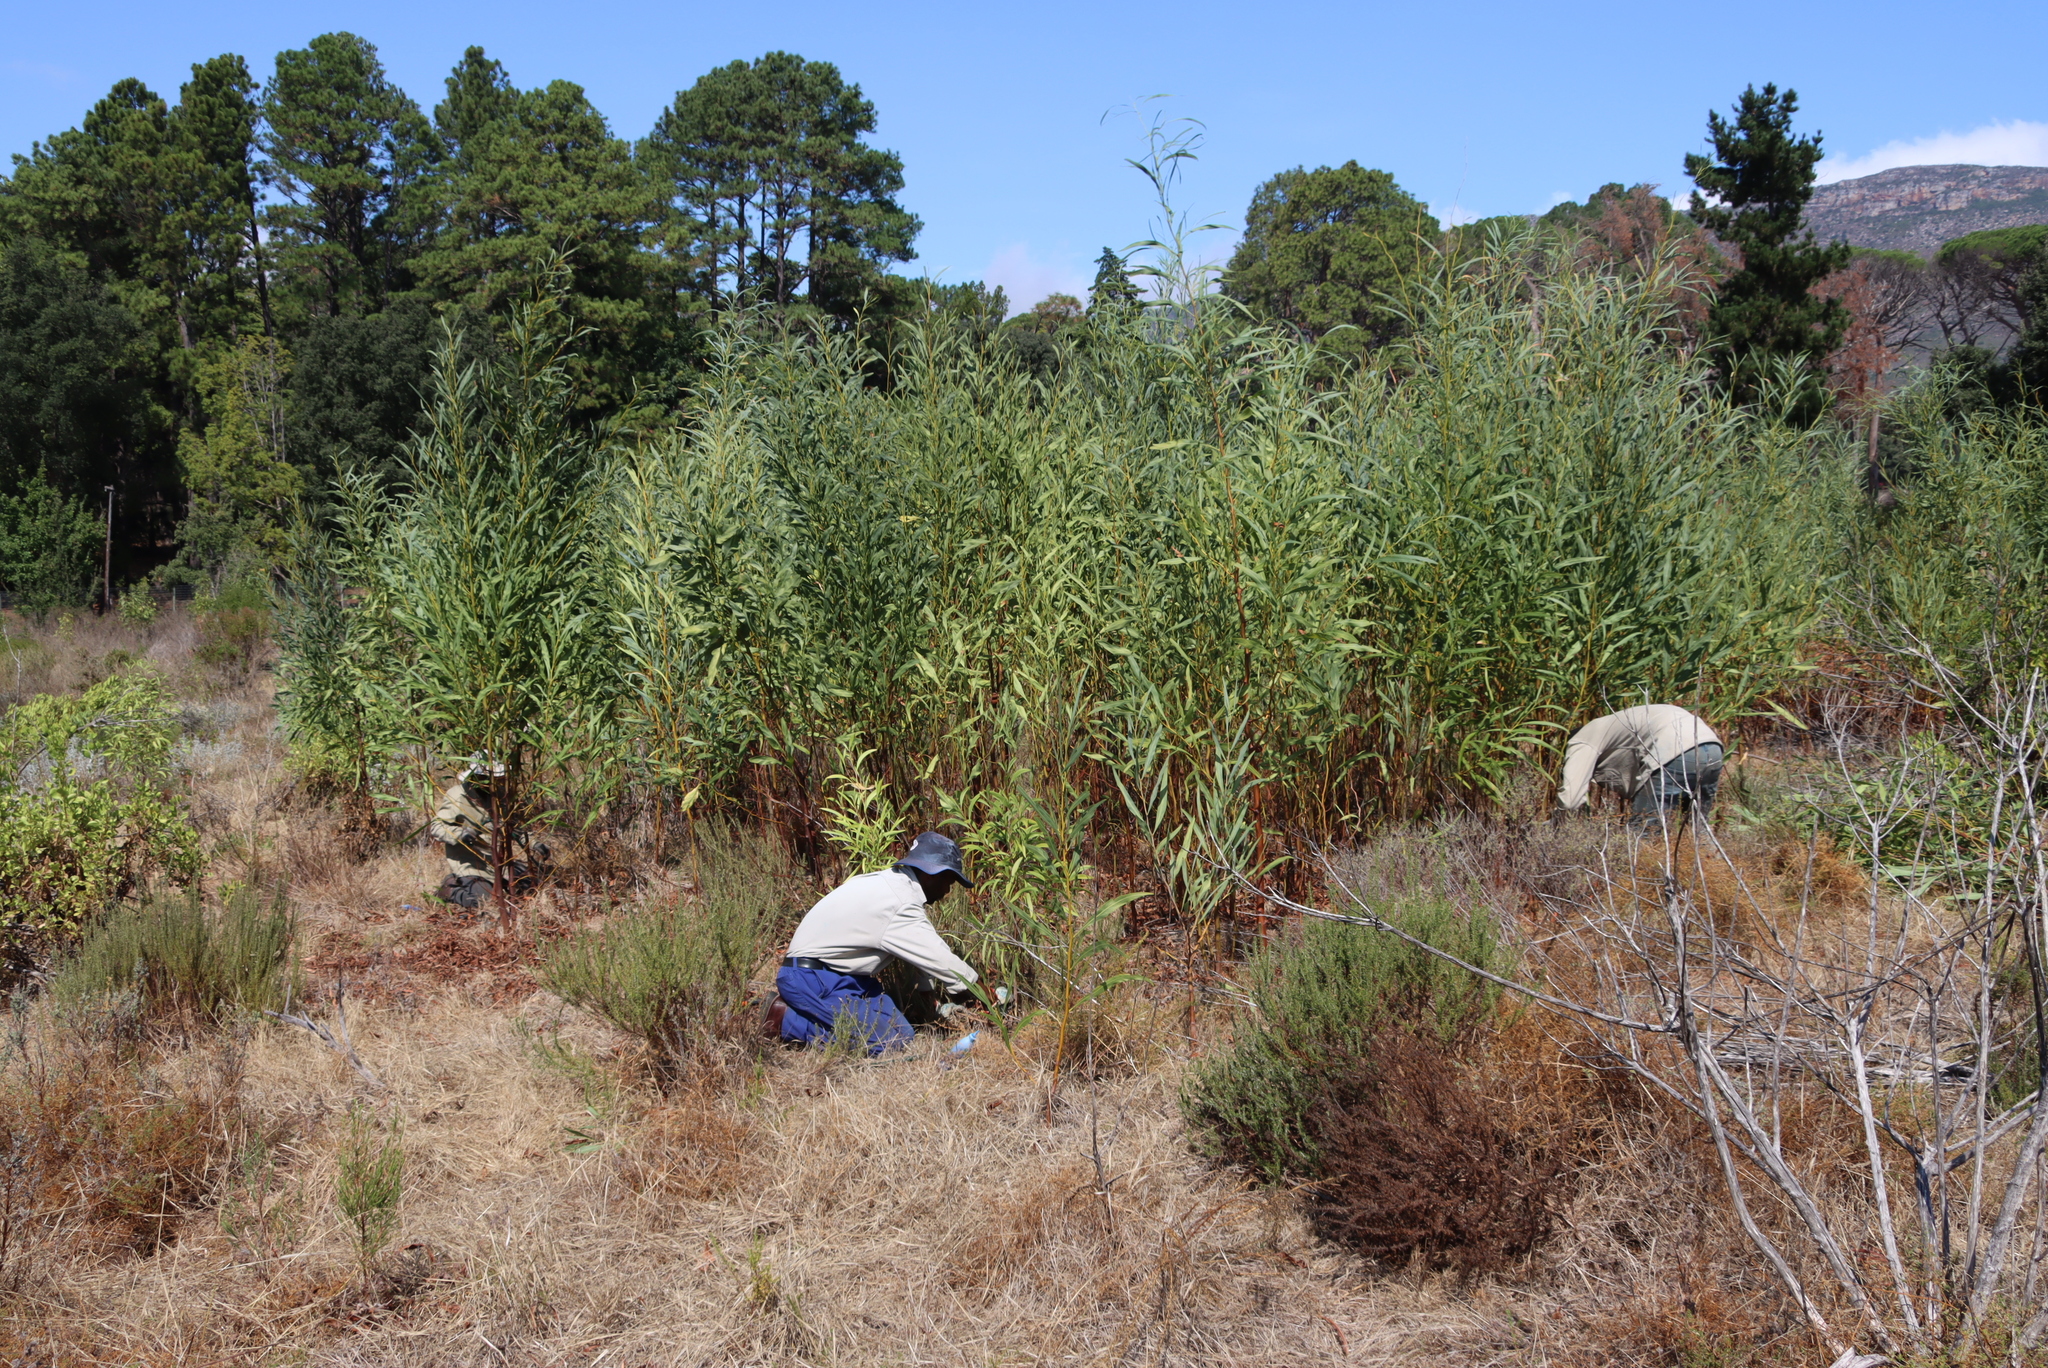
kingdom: Plantae
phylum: Tracheophyta
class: Magnoliopsida
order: Fabales
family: Fabaceae
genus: Acacia
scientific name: Acacia saligna
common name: Orange wattle
